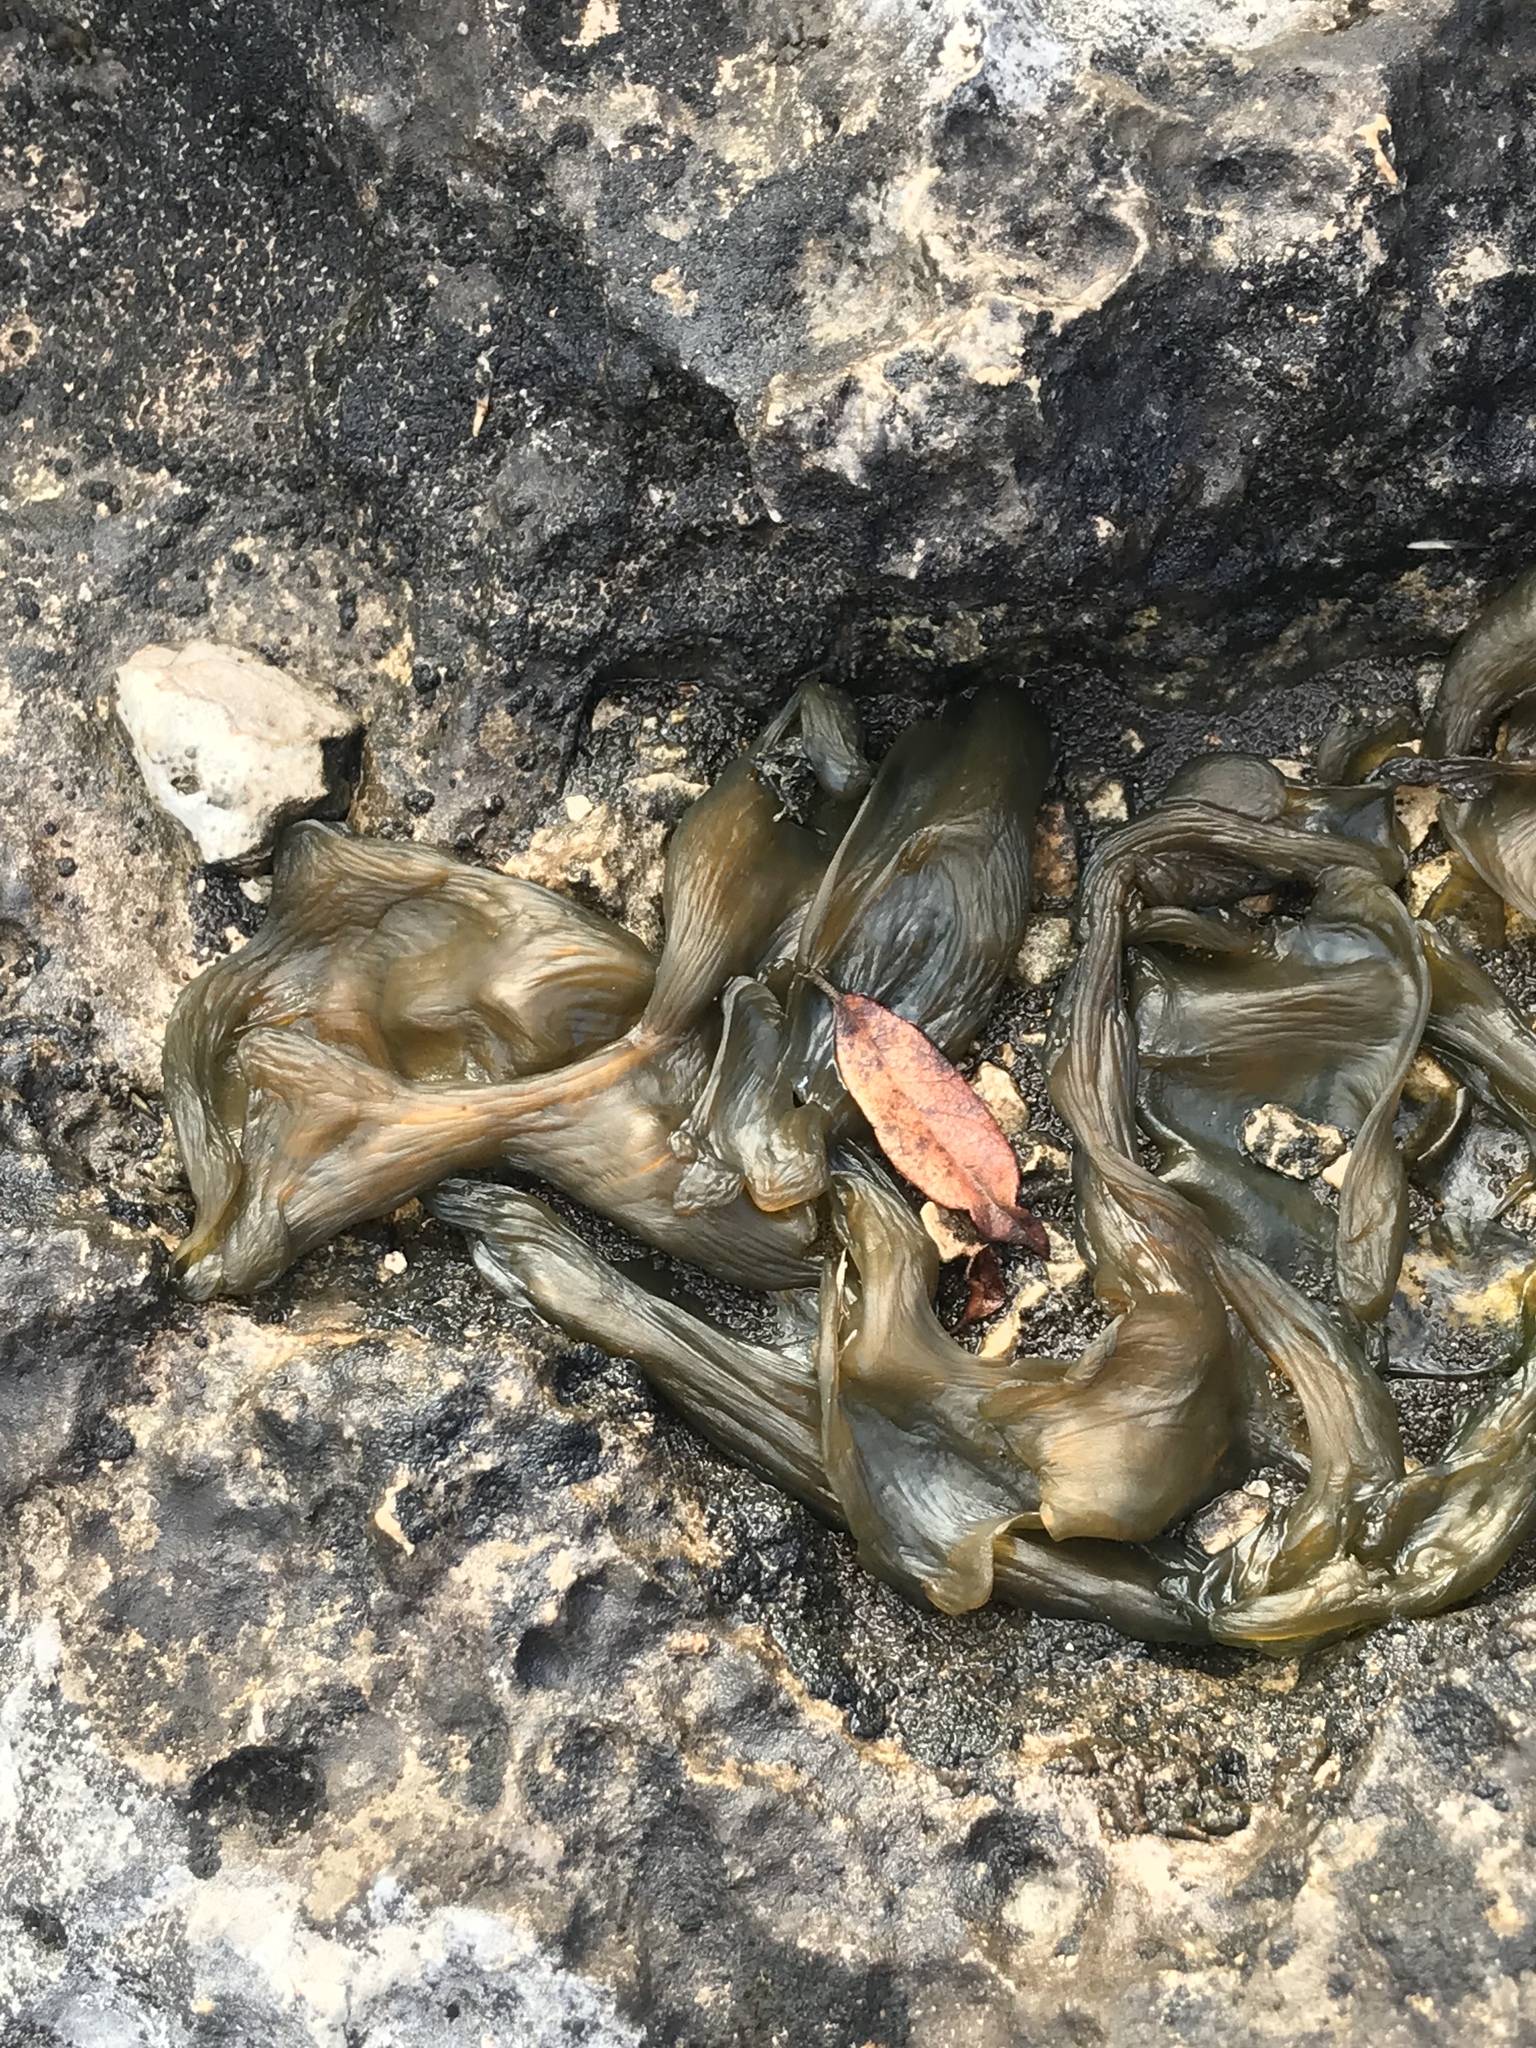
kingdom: Bacteria
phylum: Cyanobacteria
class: Cyanobacteriia
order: Cyanobacteriales
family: Nostocaceae
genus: Nostoc
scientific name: Nostoc commune
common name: Star jelly
